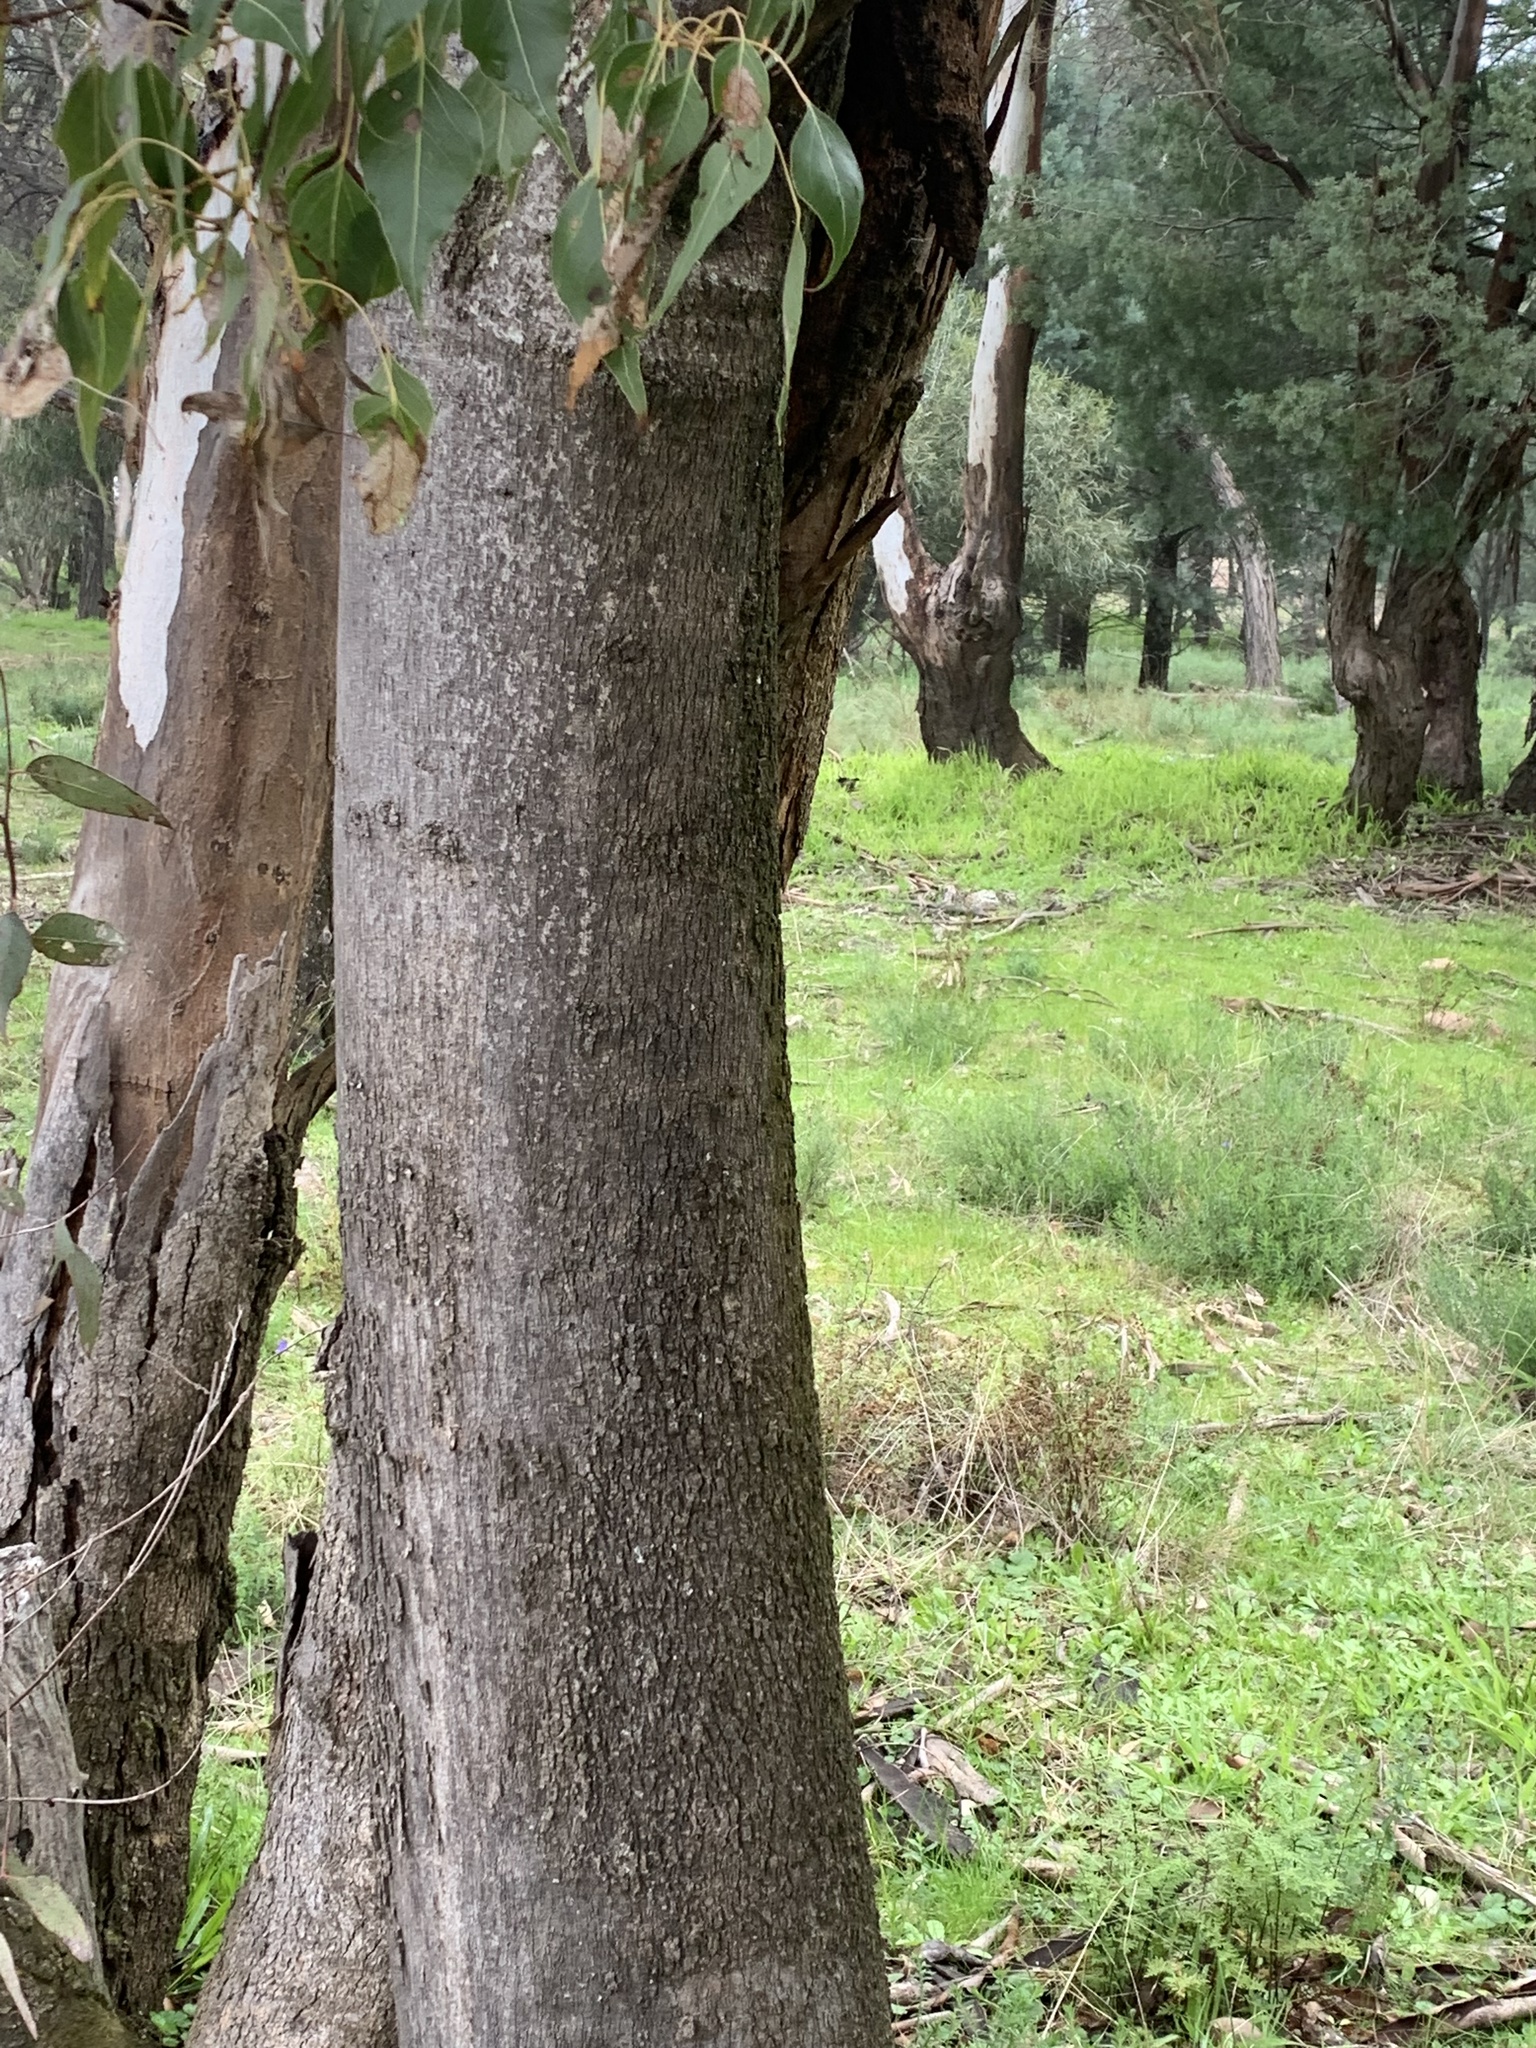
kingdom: Plantae
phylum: Tracheophyta
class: Magnoliopsida
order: Malvales
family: Malvaceae
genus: Brachychiton
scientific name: Brachychiton populneus
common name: Kurrajong
